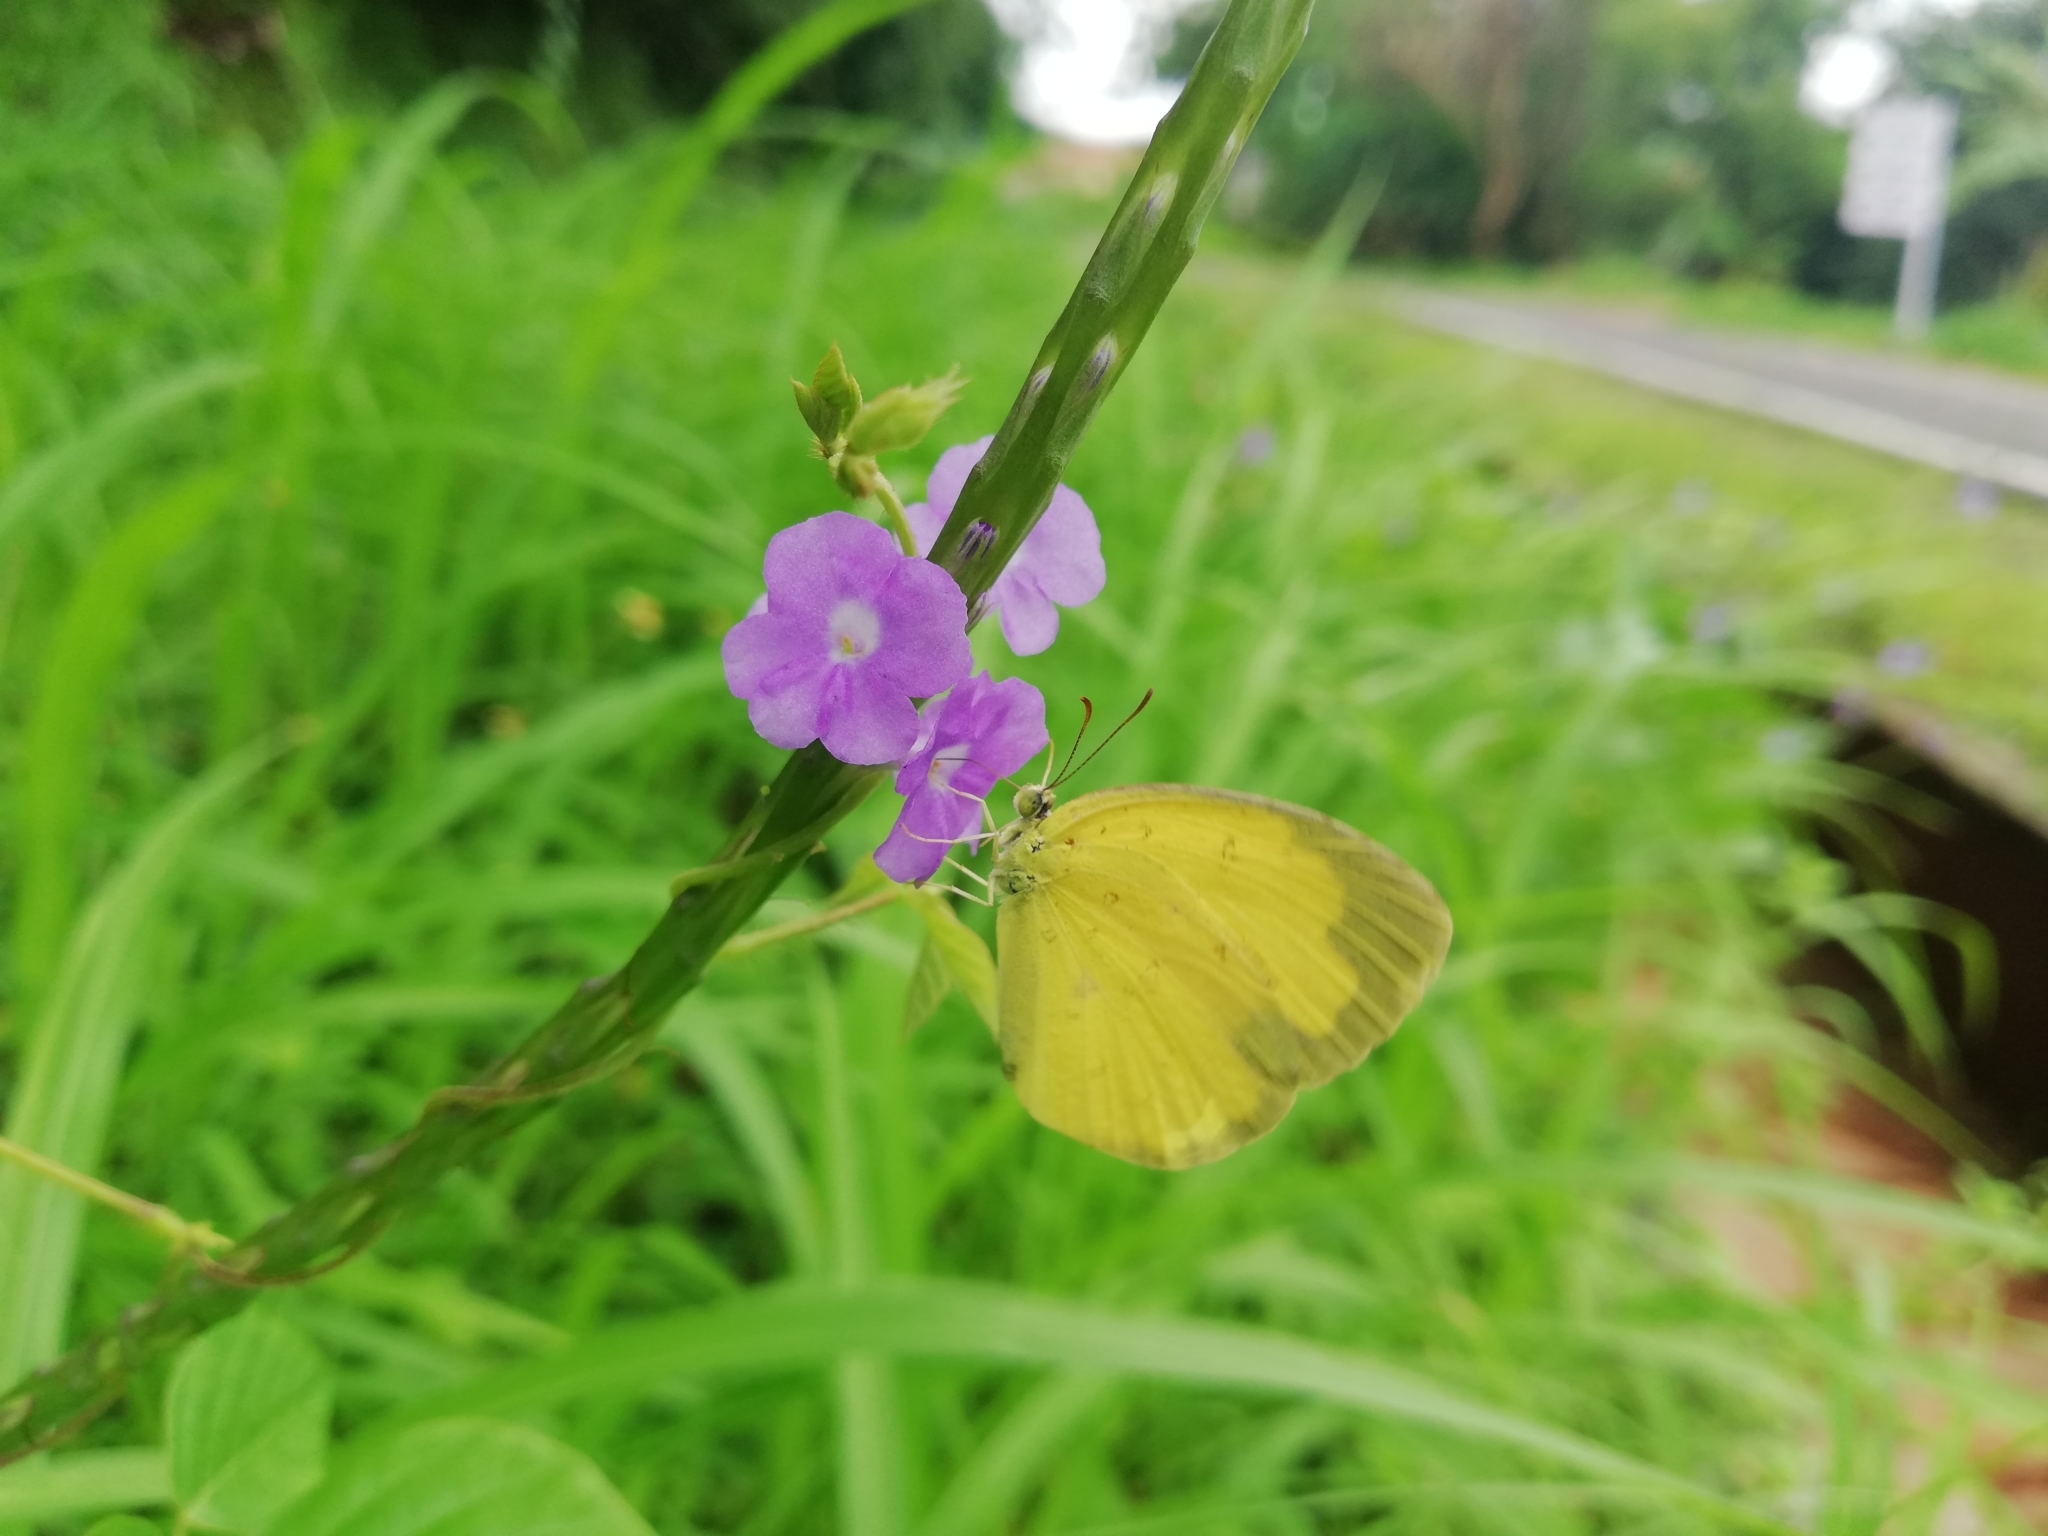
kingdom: Animalia
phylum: Arthropoda
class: Insecta
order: Lepidoptera
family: Pieridae
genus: Eurema
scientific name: Eurema hecabe
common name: Pale grass yellow
